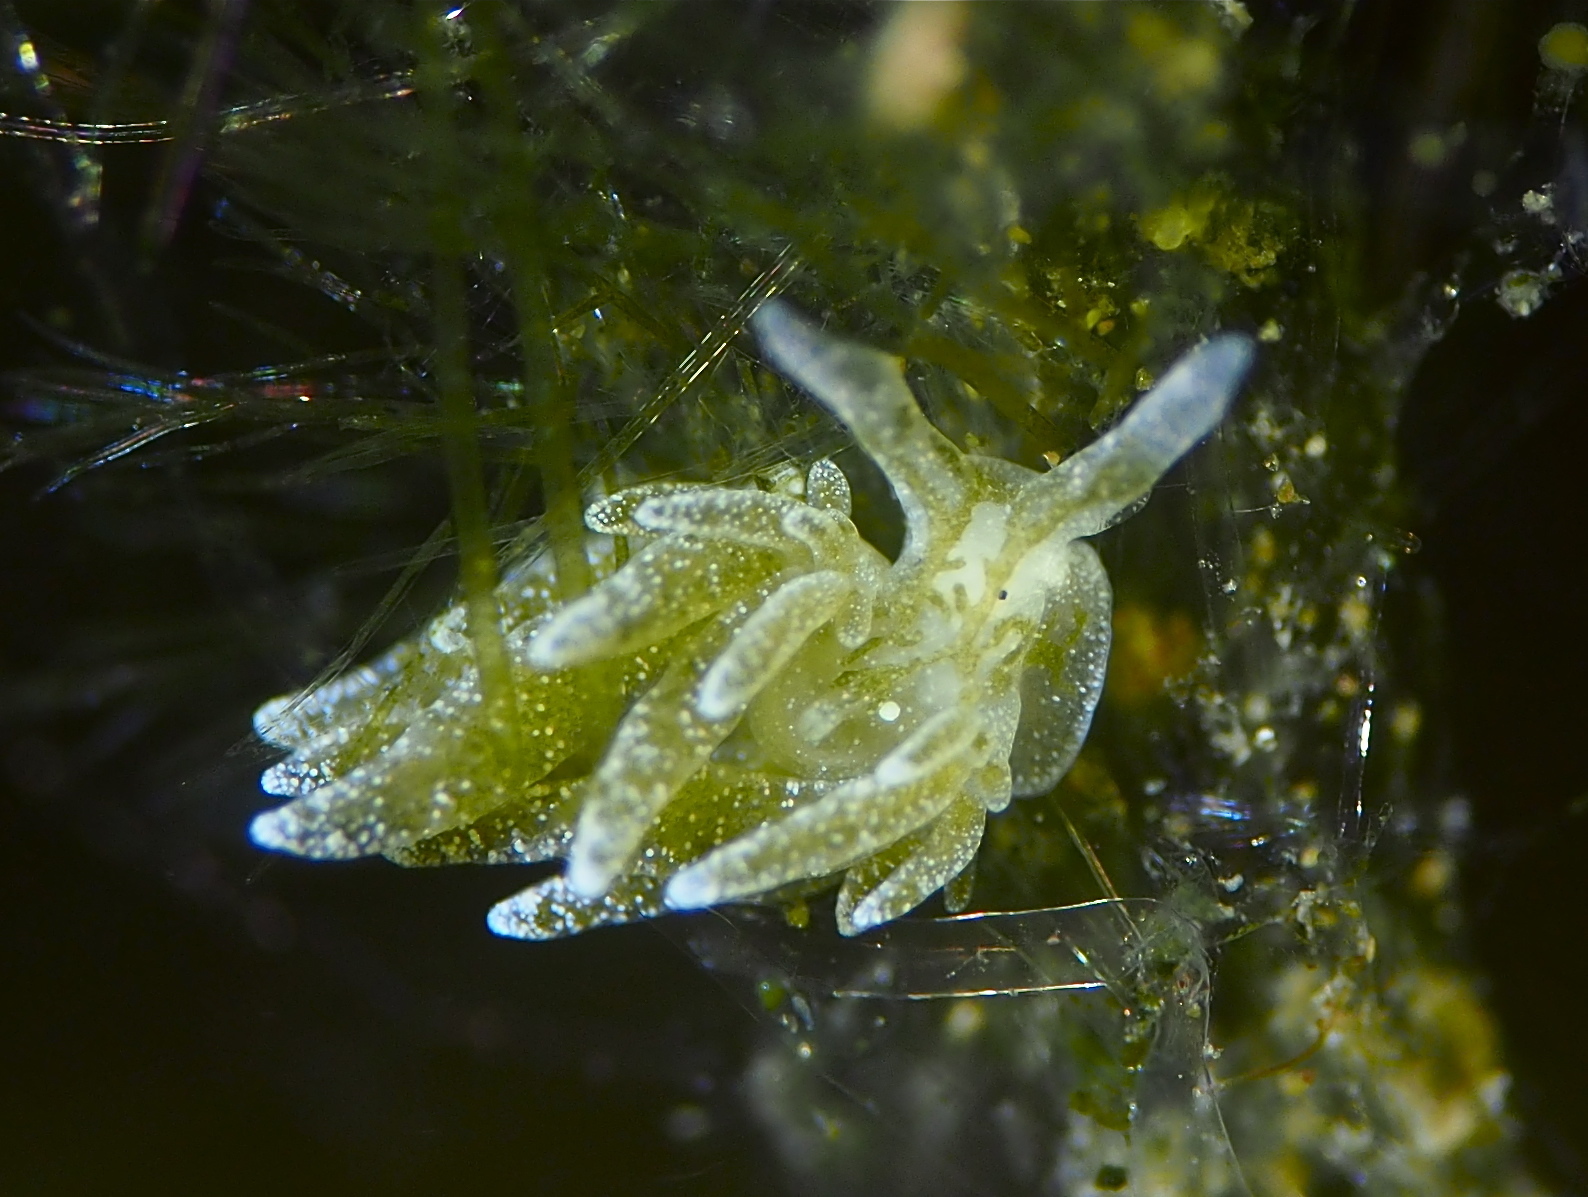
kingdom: Animalia
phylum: Mollusca
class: Gastropoda
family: Limapontiidae
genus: Placida
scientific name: Placida dendritica
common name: Dendritic nudibranch
